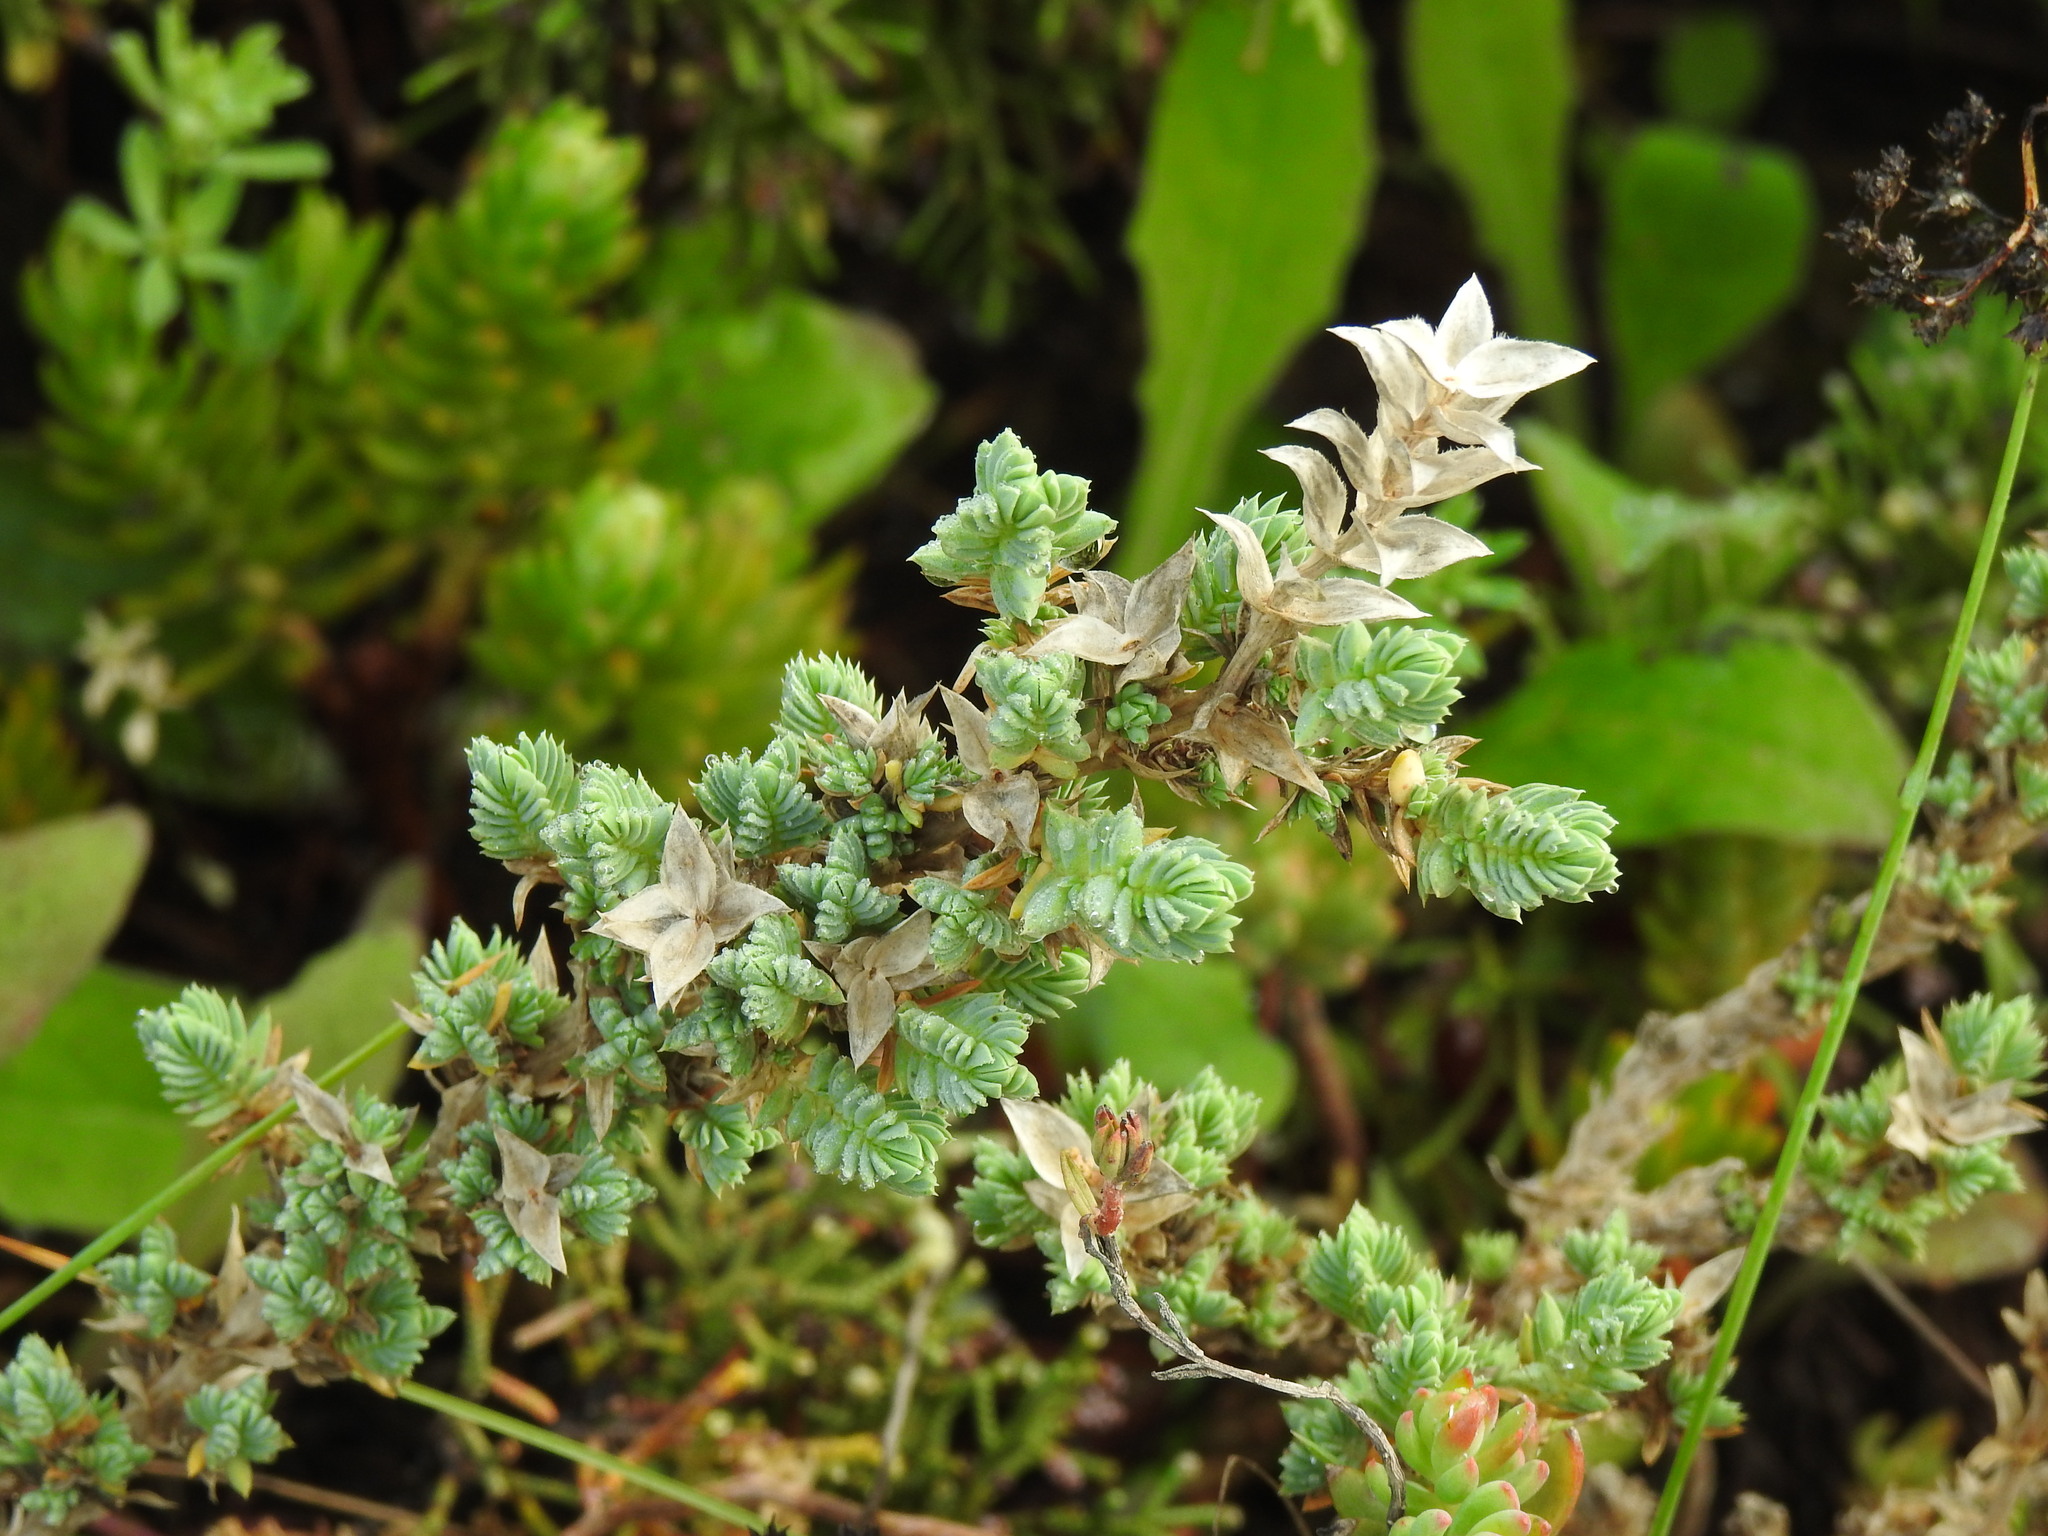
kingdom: Plantae
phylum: Tracheophyta
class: Magnoliopsida
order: Gentianales
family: Rubiaceae
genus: Crucianella
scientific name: Crucianella maritima
